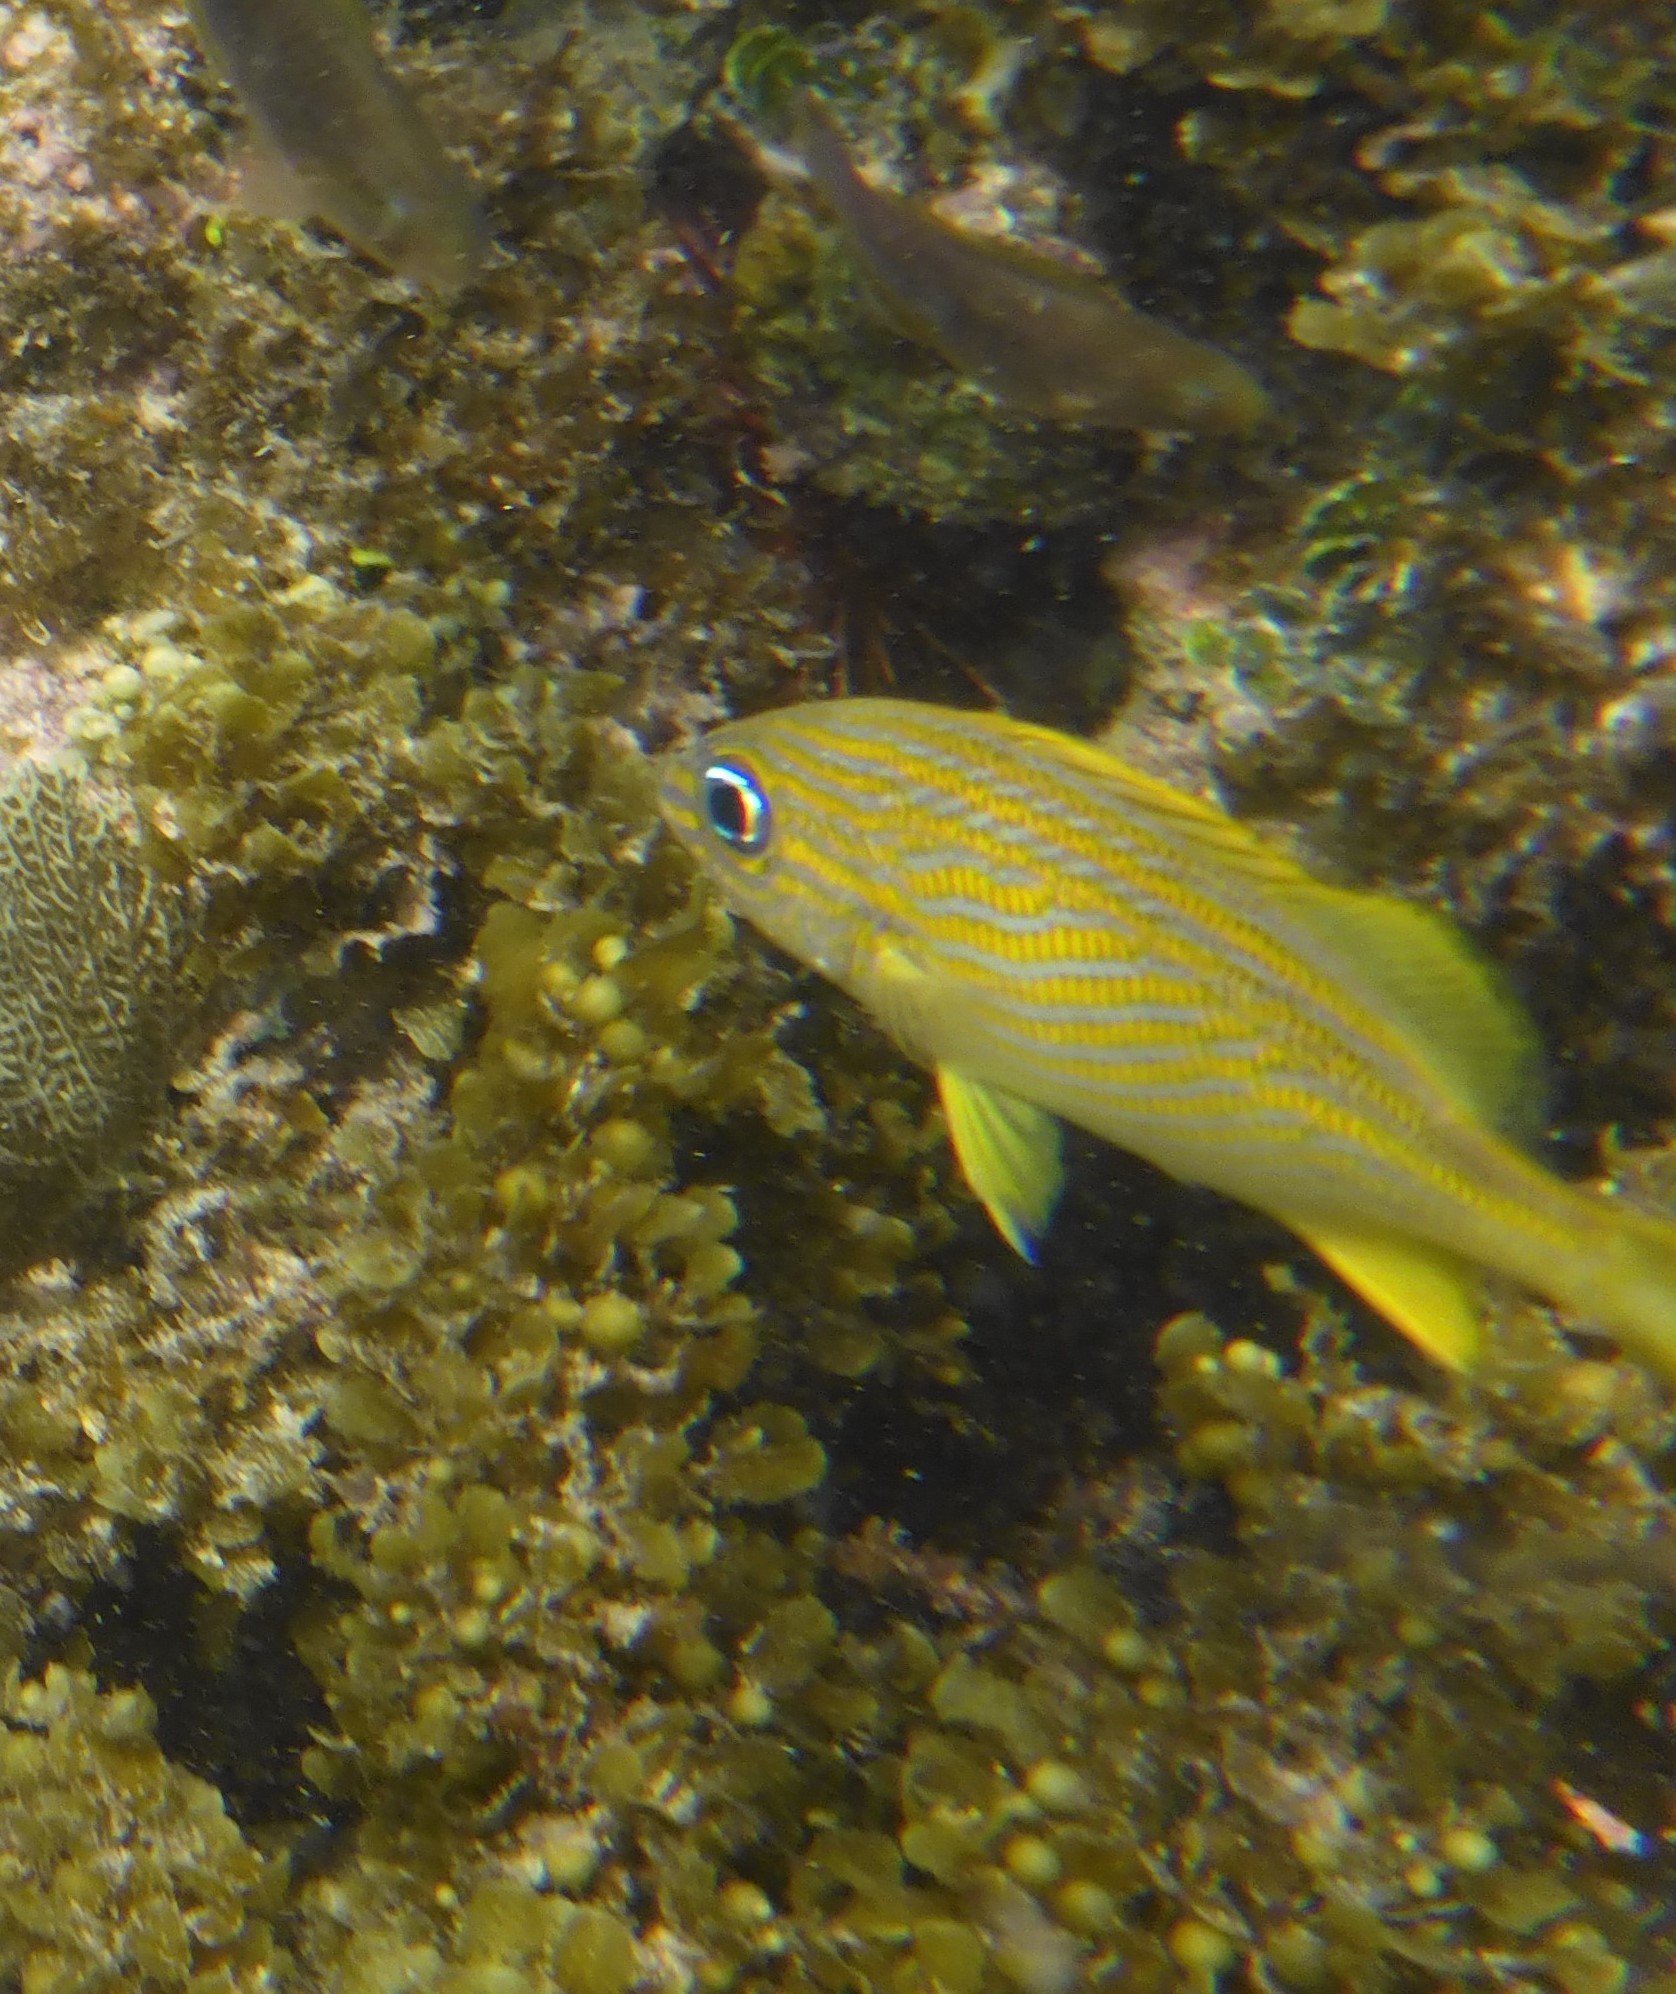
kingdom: Animalia
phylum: Chordata
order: Perciformes
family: Haemulidae
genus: Haemulon
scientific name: Haemulon flavolineatum
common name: French grunt
